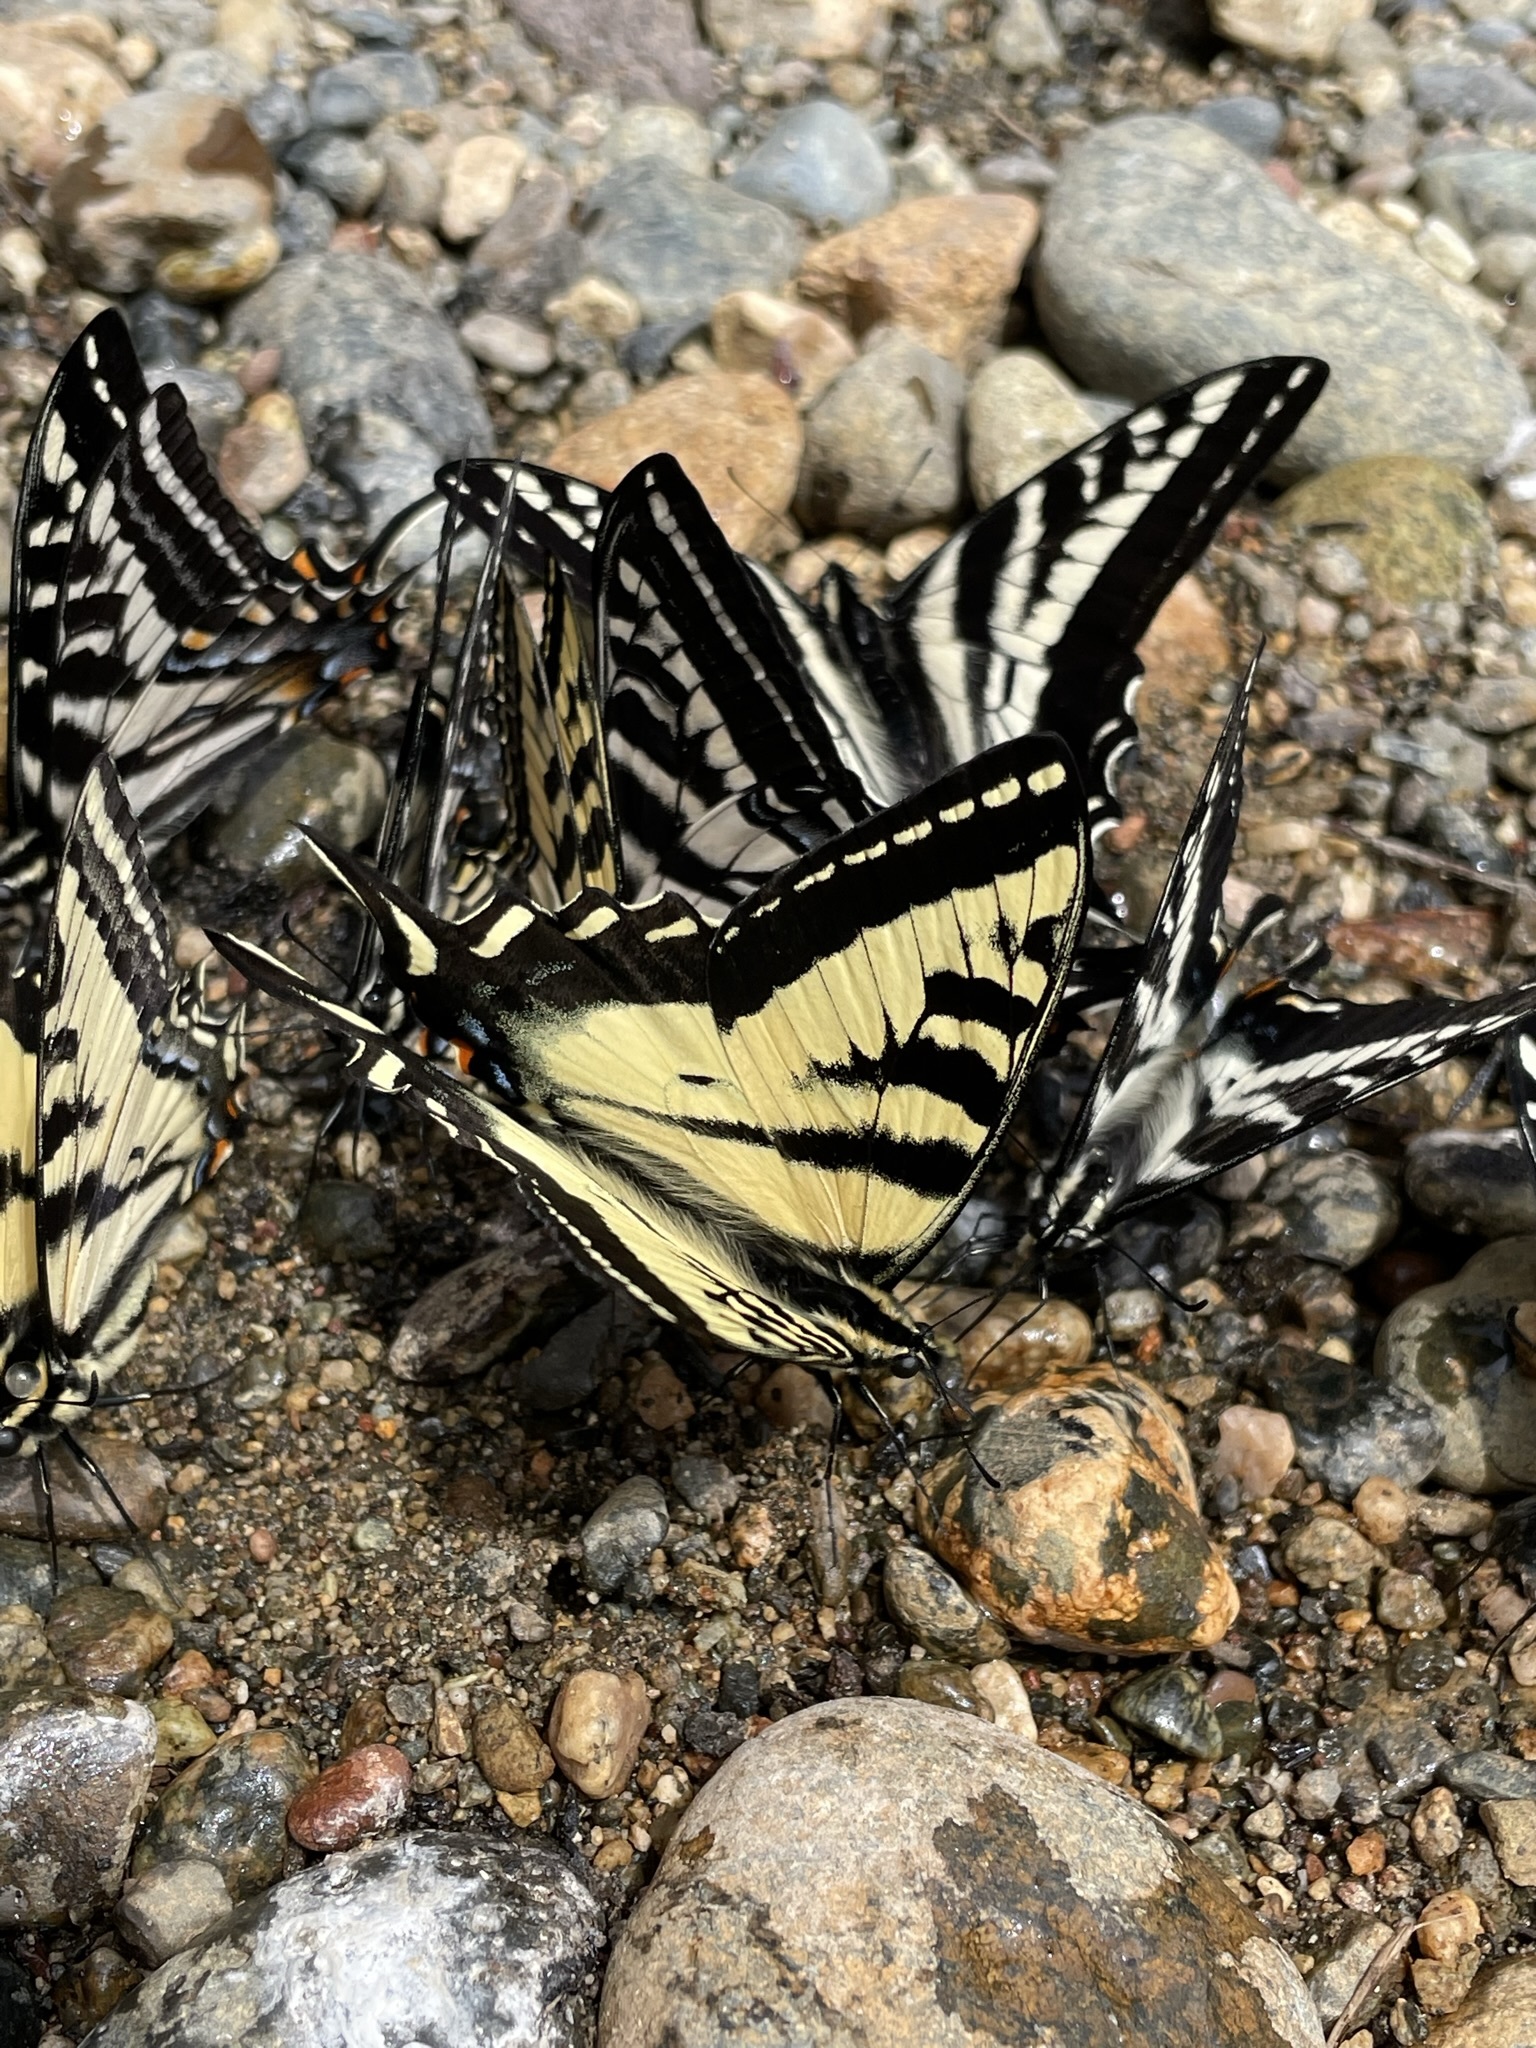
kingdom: Animalia
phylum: Arthropoda
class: Insecta
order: Lepidoptera
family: Papilionidae
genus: Papilio
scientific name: Papilio rutulus
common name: Western tiger swallowtail
